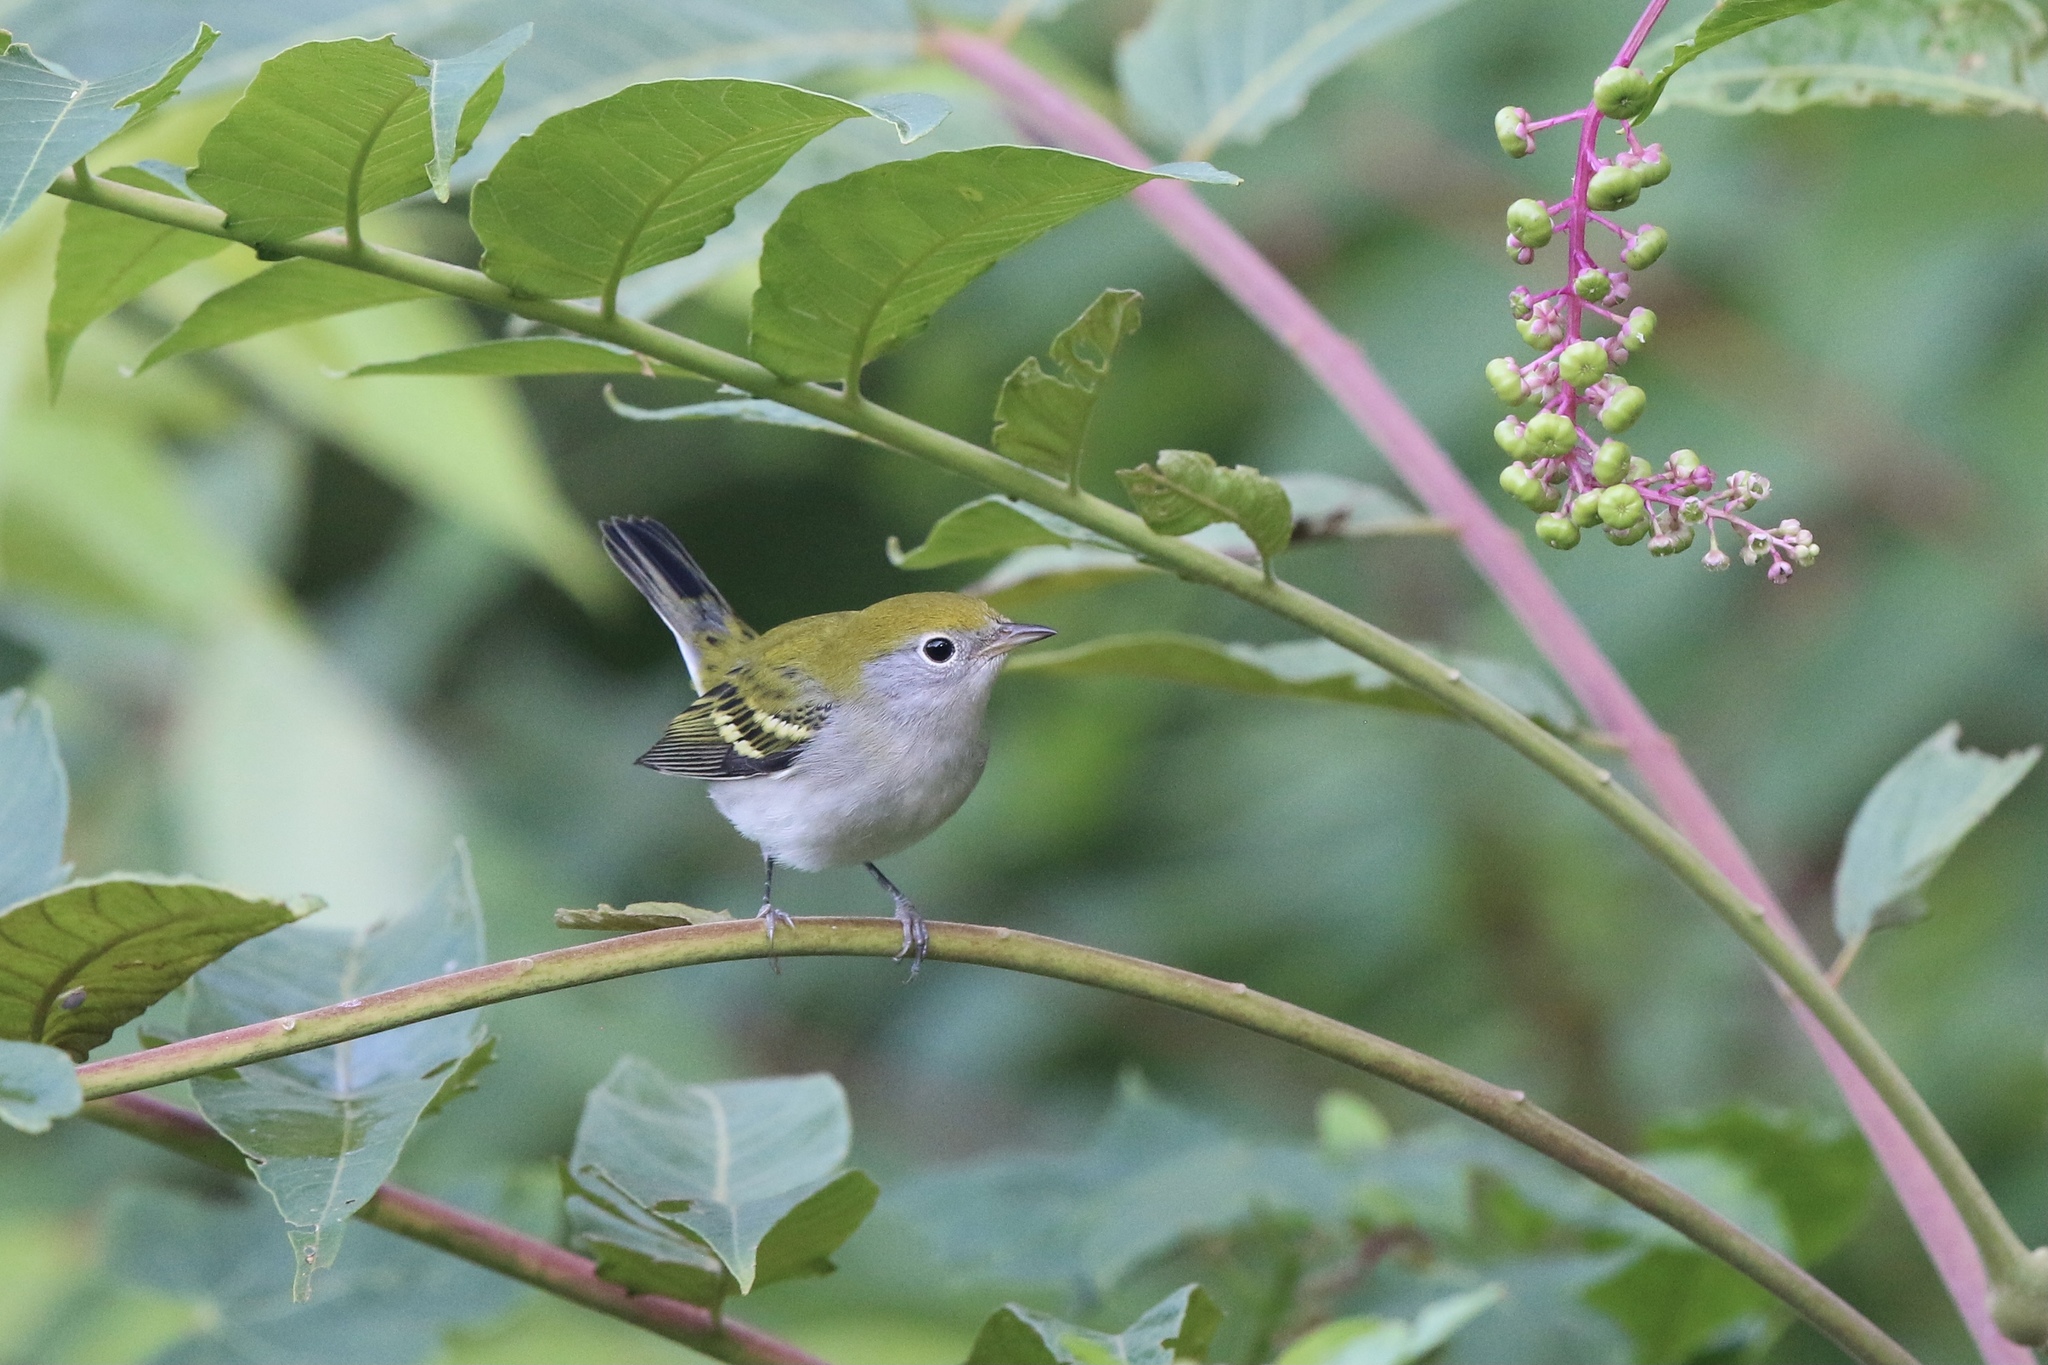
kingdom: Animalia
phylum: Chordata
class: Aves
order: Passeriformes
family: Parulidae
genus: Setophaga
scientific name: Setophaga pensylvanica
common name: Chestnut-sided warbler
